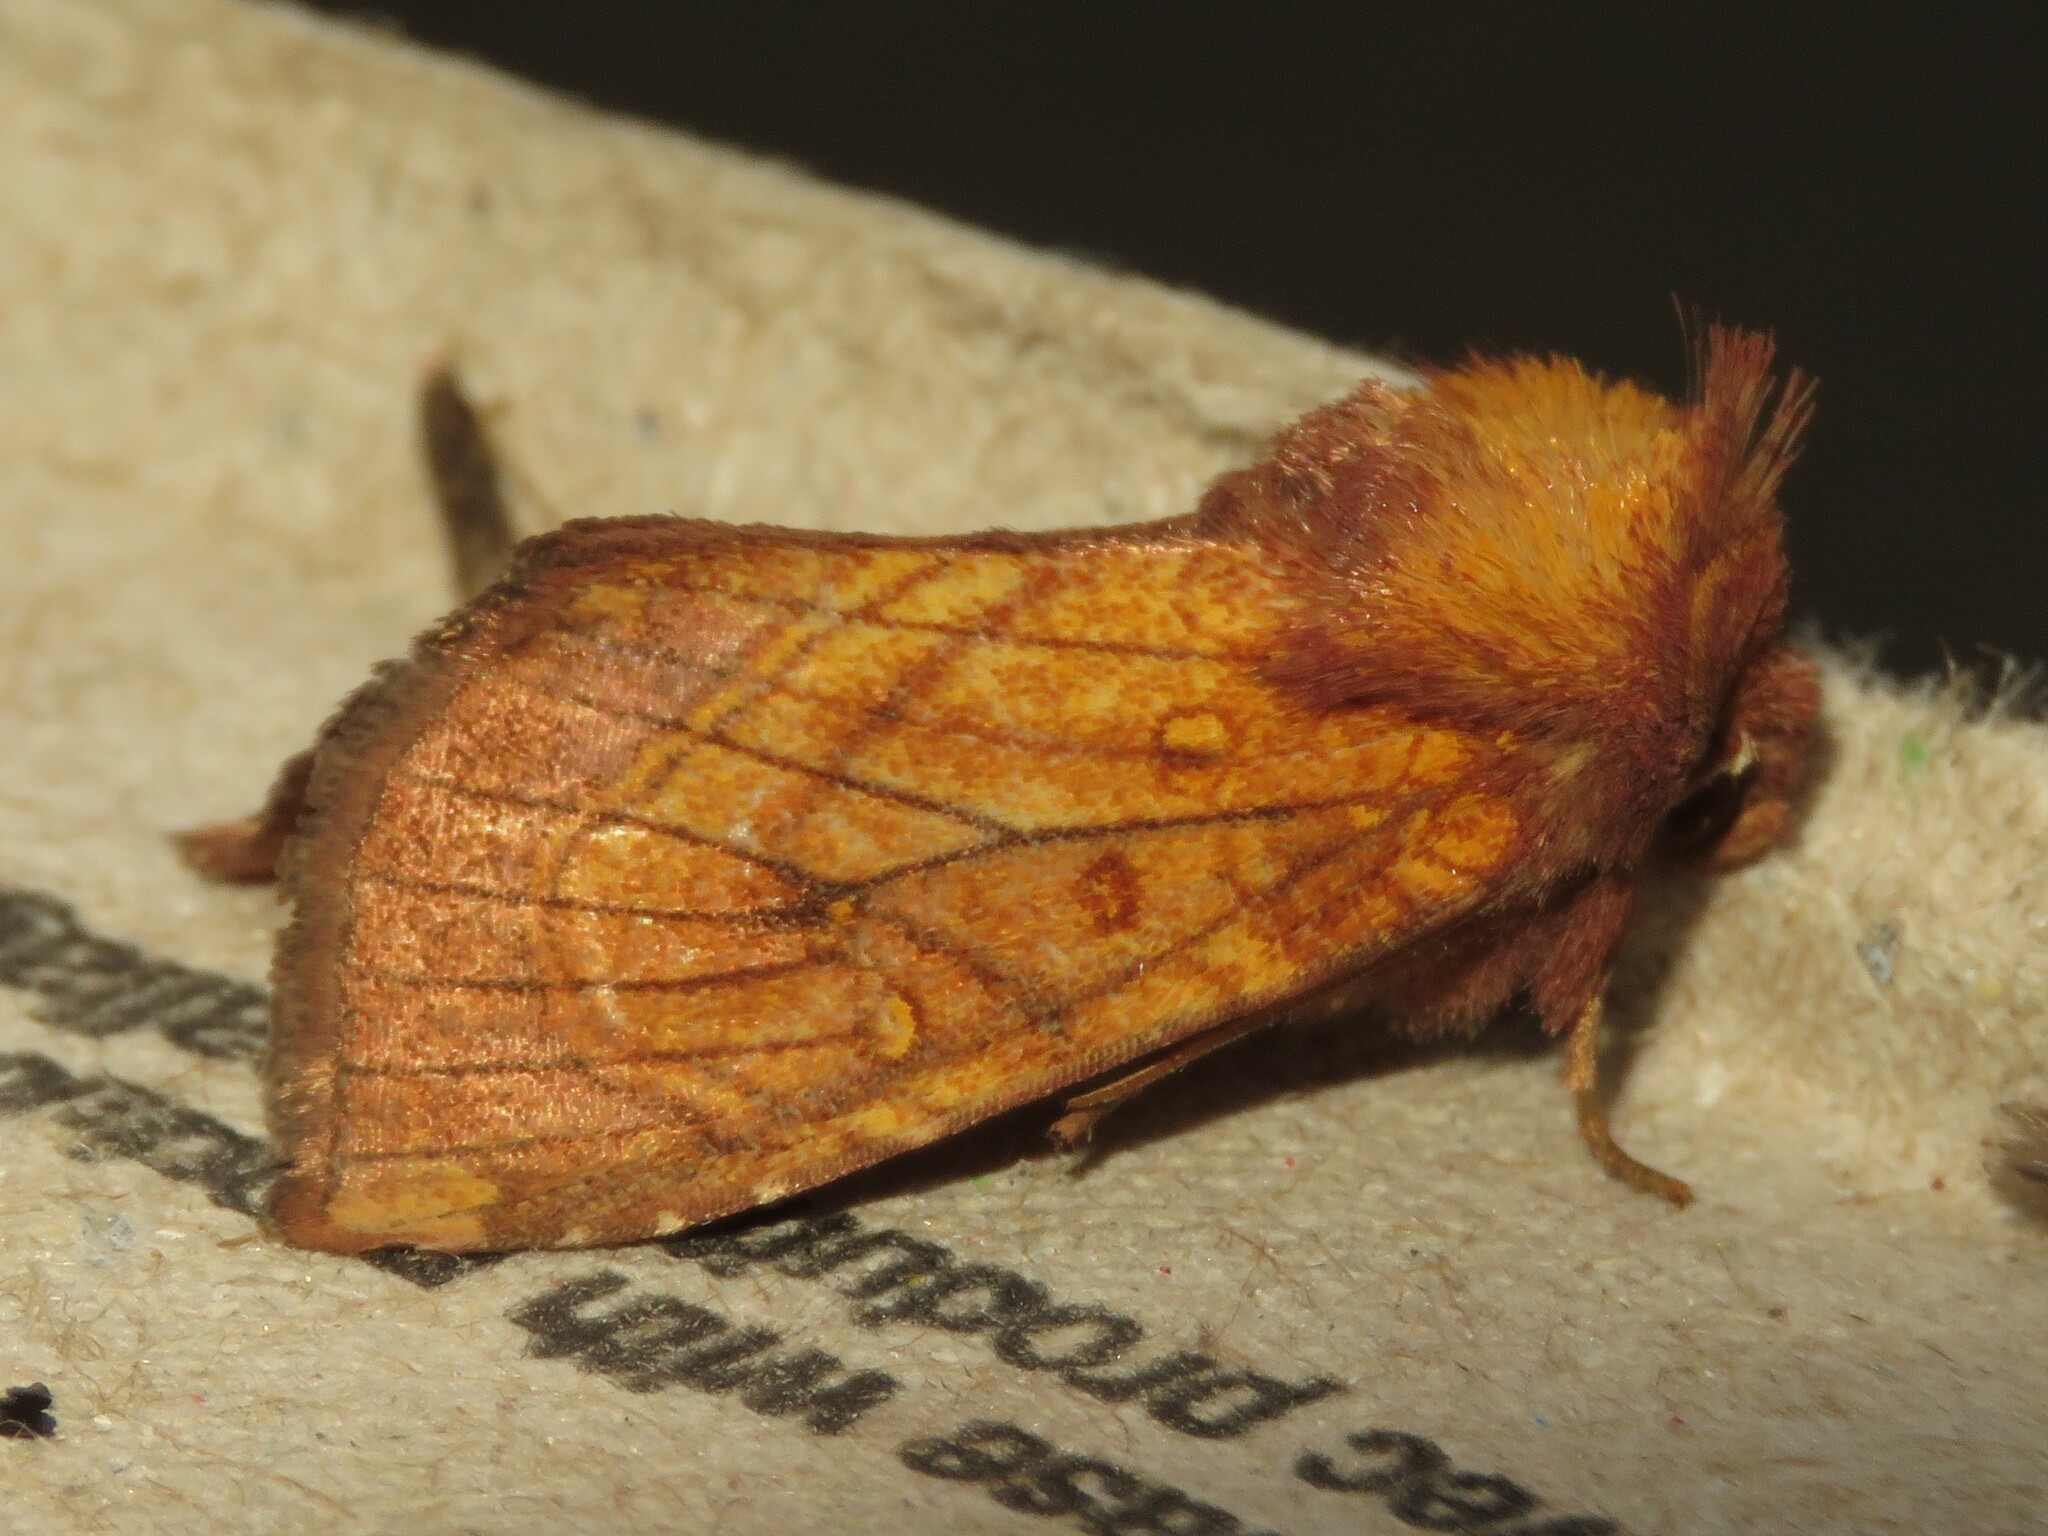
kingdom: Animalia
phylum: Arthropoda
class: Insecta
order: Lepidoptera
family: Noctuidae
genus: Papaipema
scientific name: Papaipema inquaesita
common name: Sensitive fern borer moth
